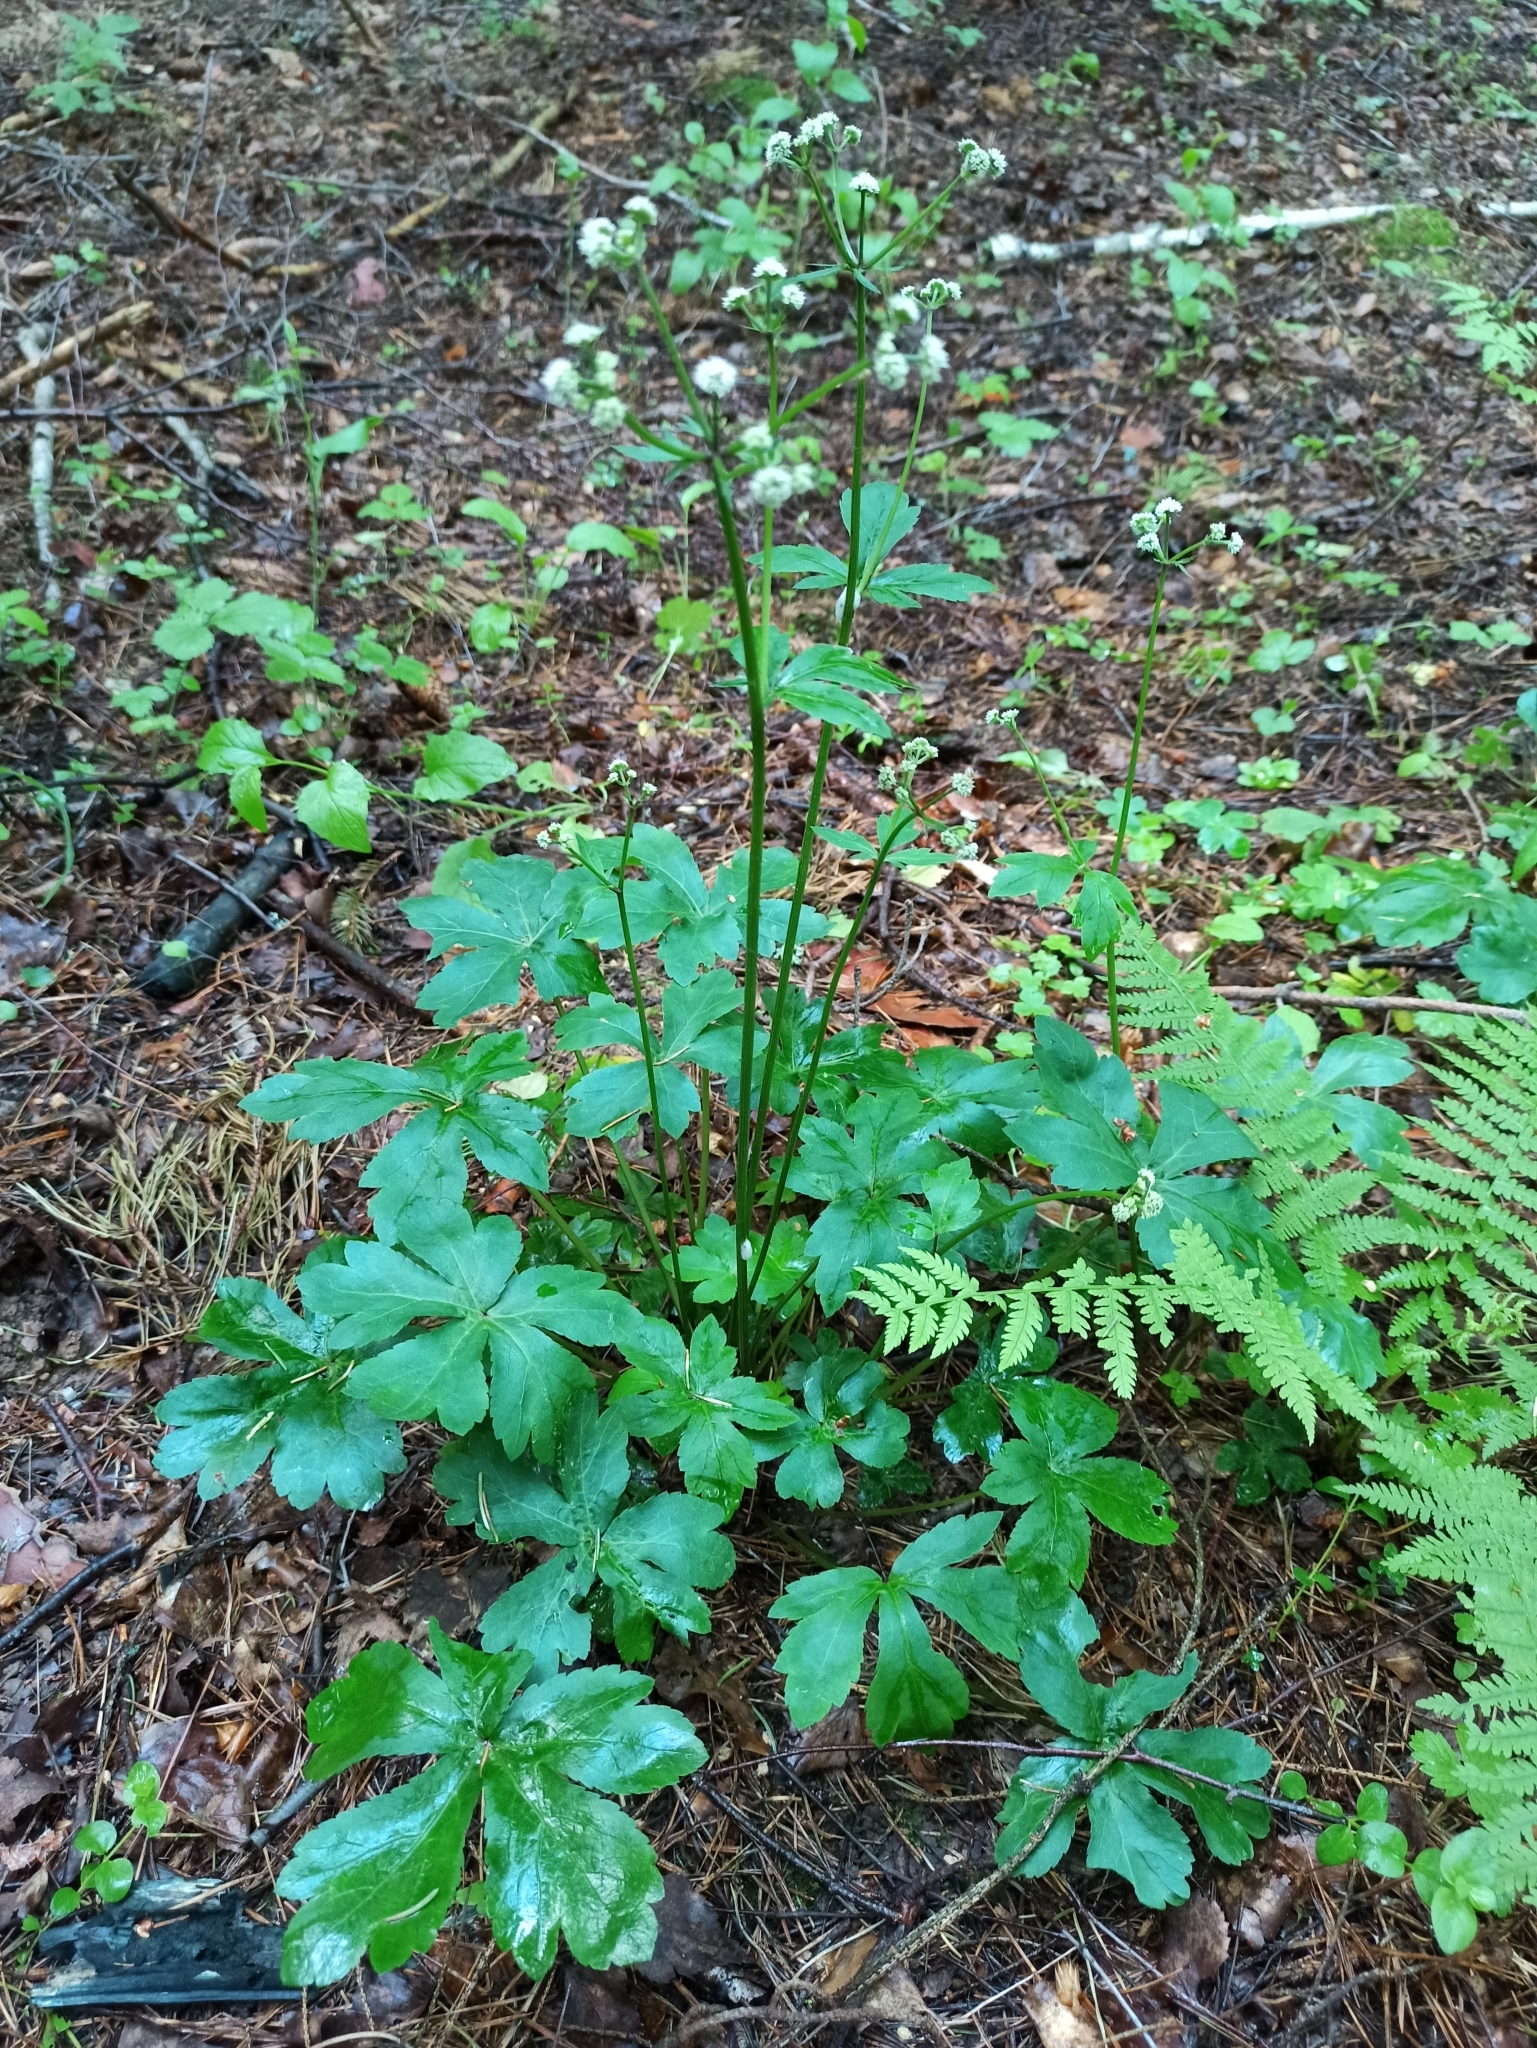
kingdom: Plantae
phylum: Tracheophyta
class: Magnoliopsida
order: Apiales
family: Apiaceae
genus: Sanicula
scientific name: Sanicula europaea
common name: Sanicle
